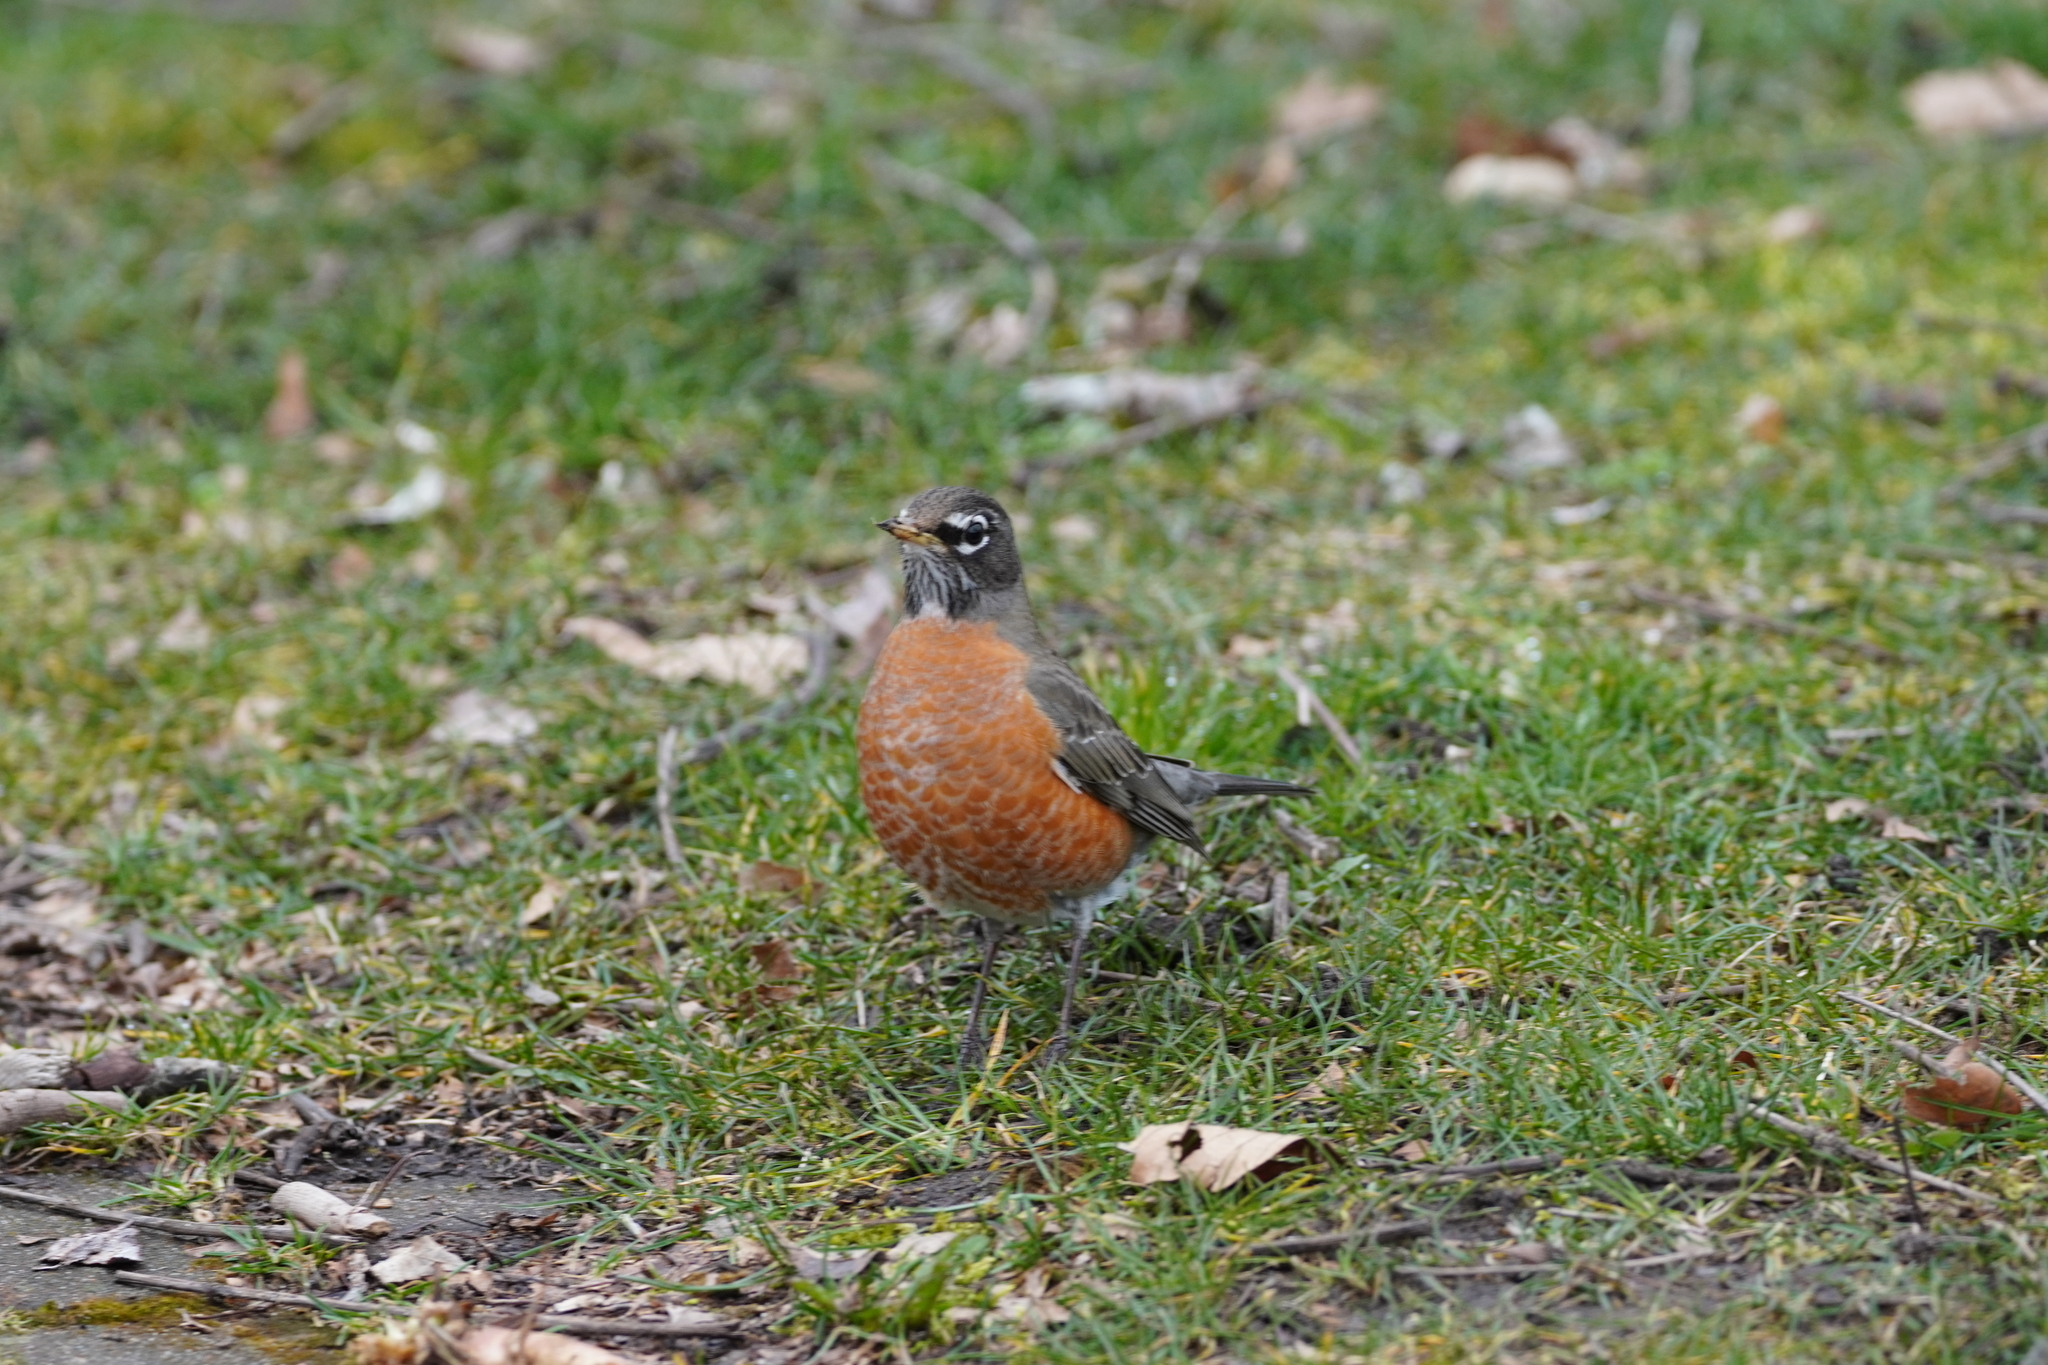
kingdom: Animalia
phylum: Chordata
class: Aves
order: Passeriformes
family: Turdidae
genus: Turdus
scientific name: Turdus migratorius
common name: American robin
